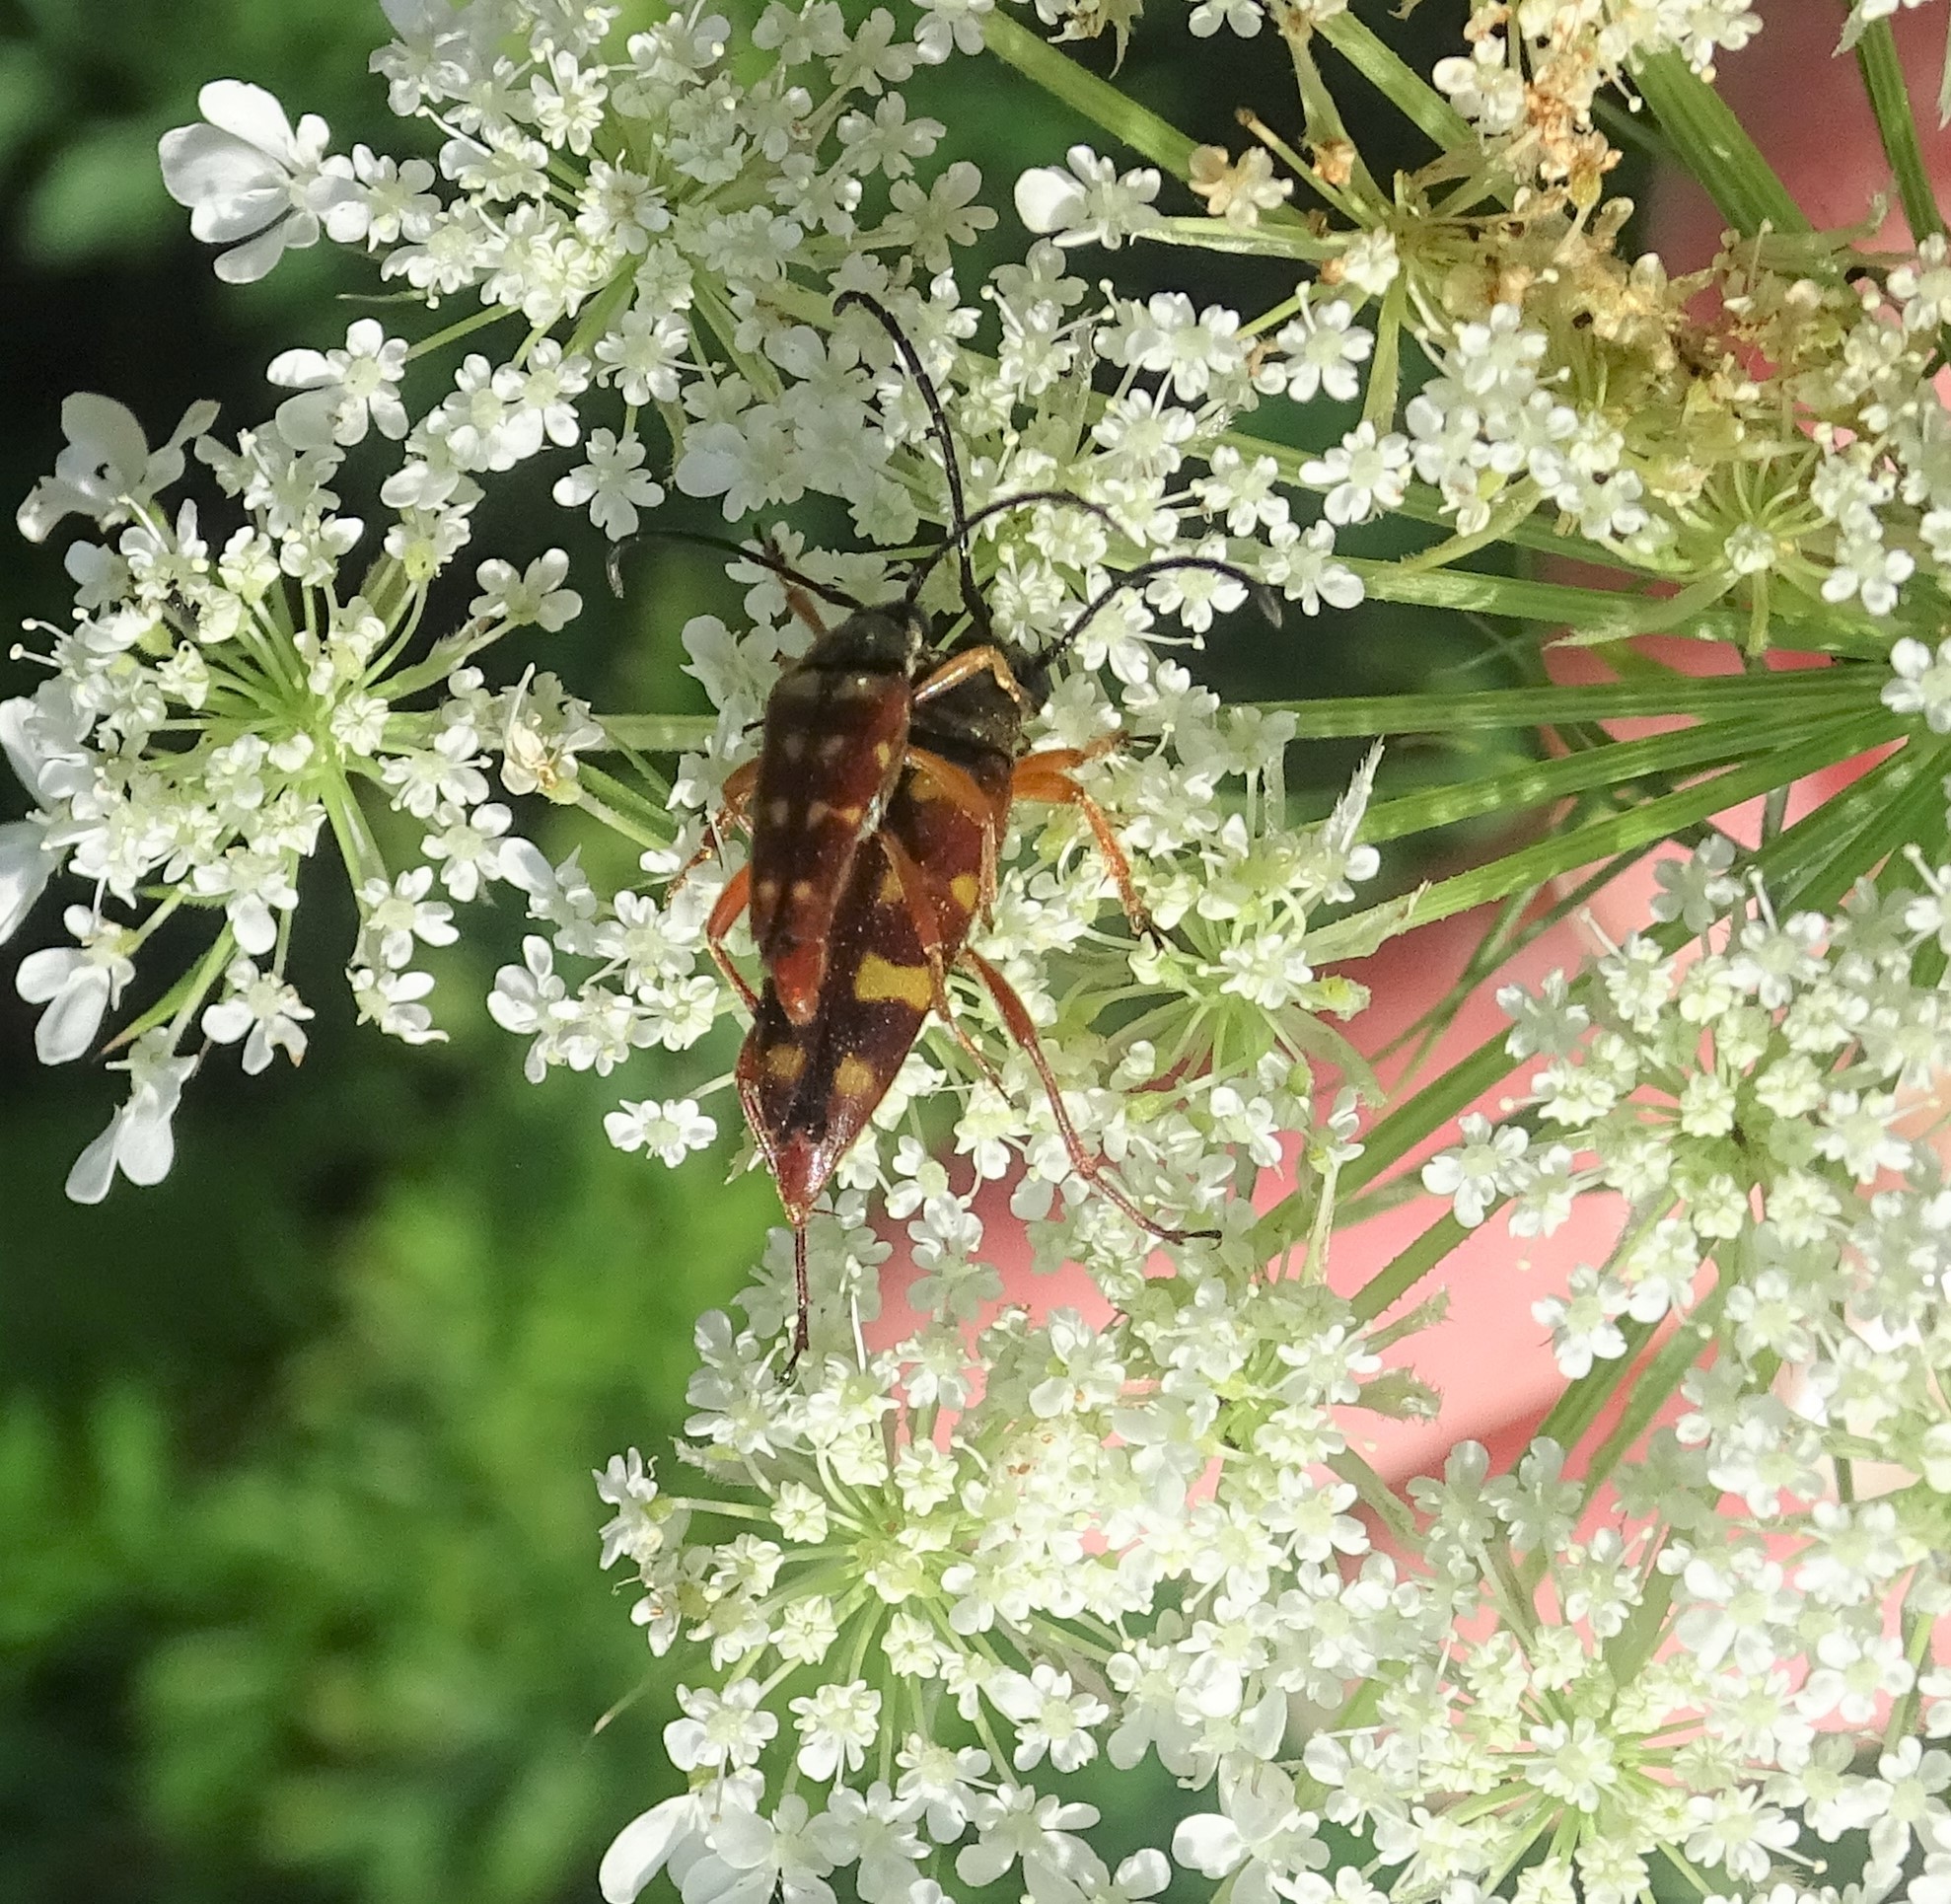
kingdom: Animalia
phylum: Arthropoda
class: Insecta
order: Coleoptera
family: Cerambycidae
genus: Typocerus
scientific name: Typocerus velutinus
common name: Banded longhorn beetle
